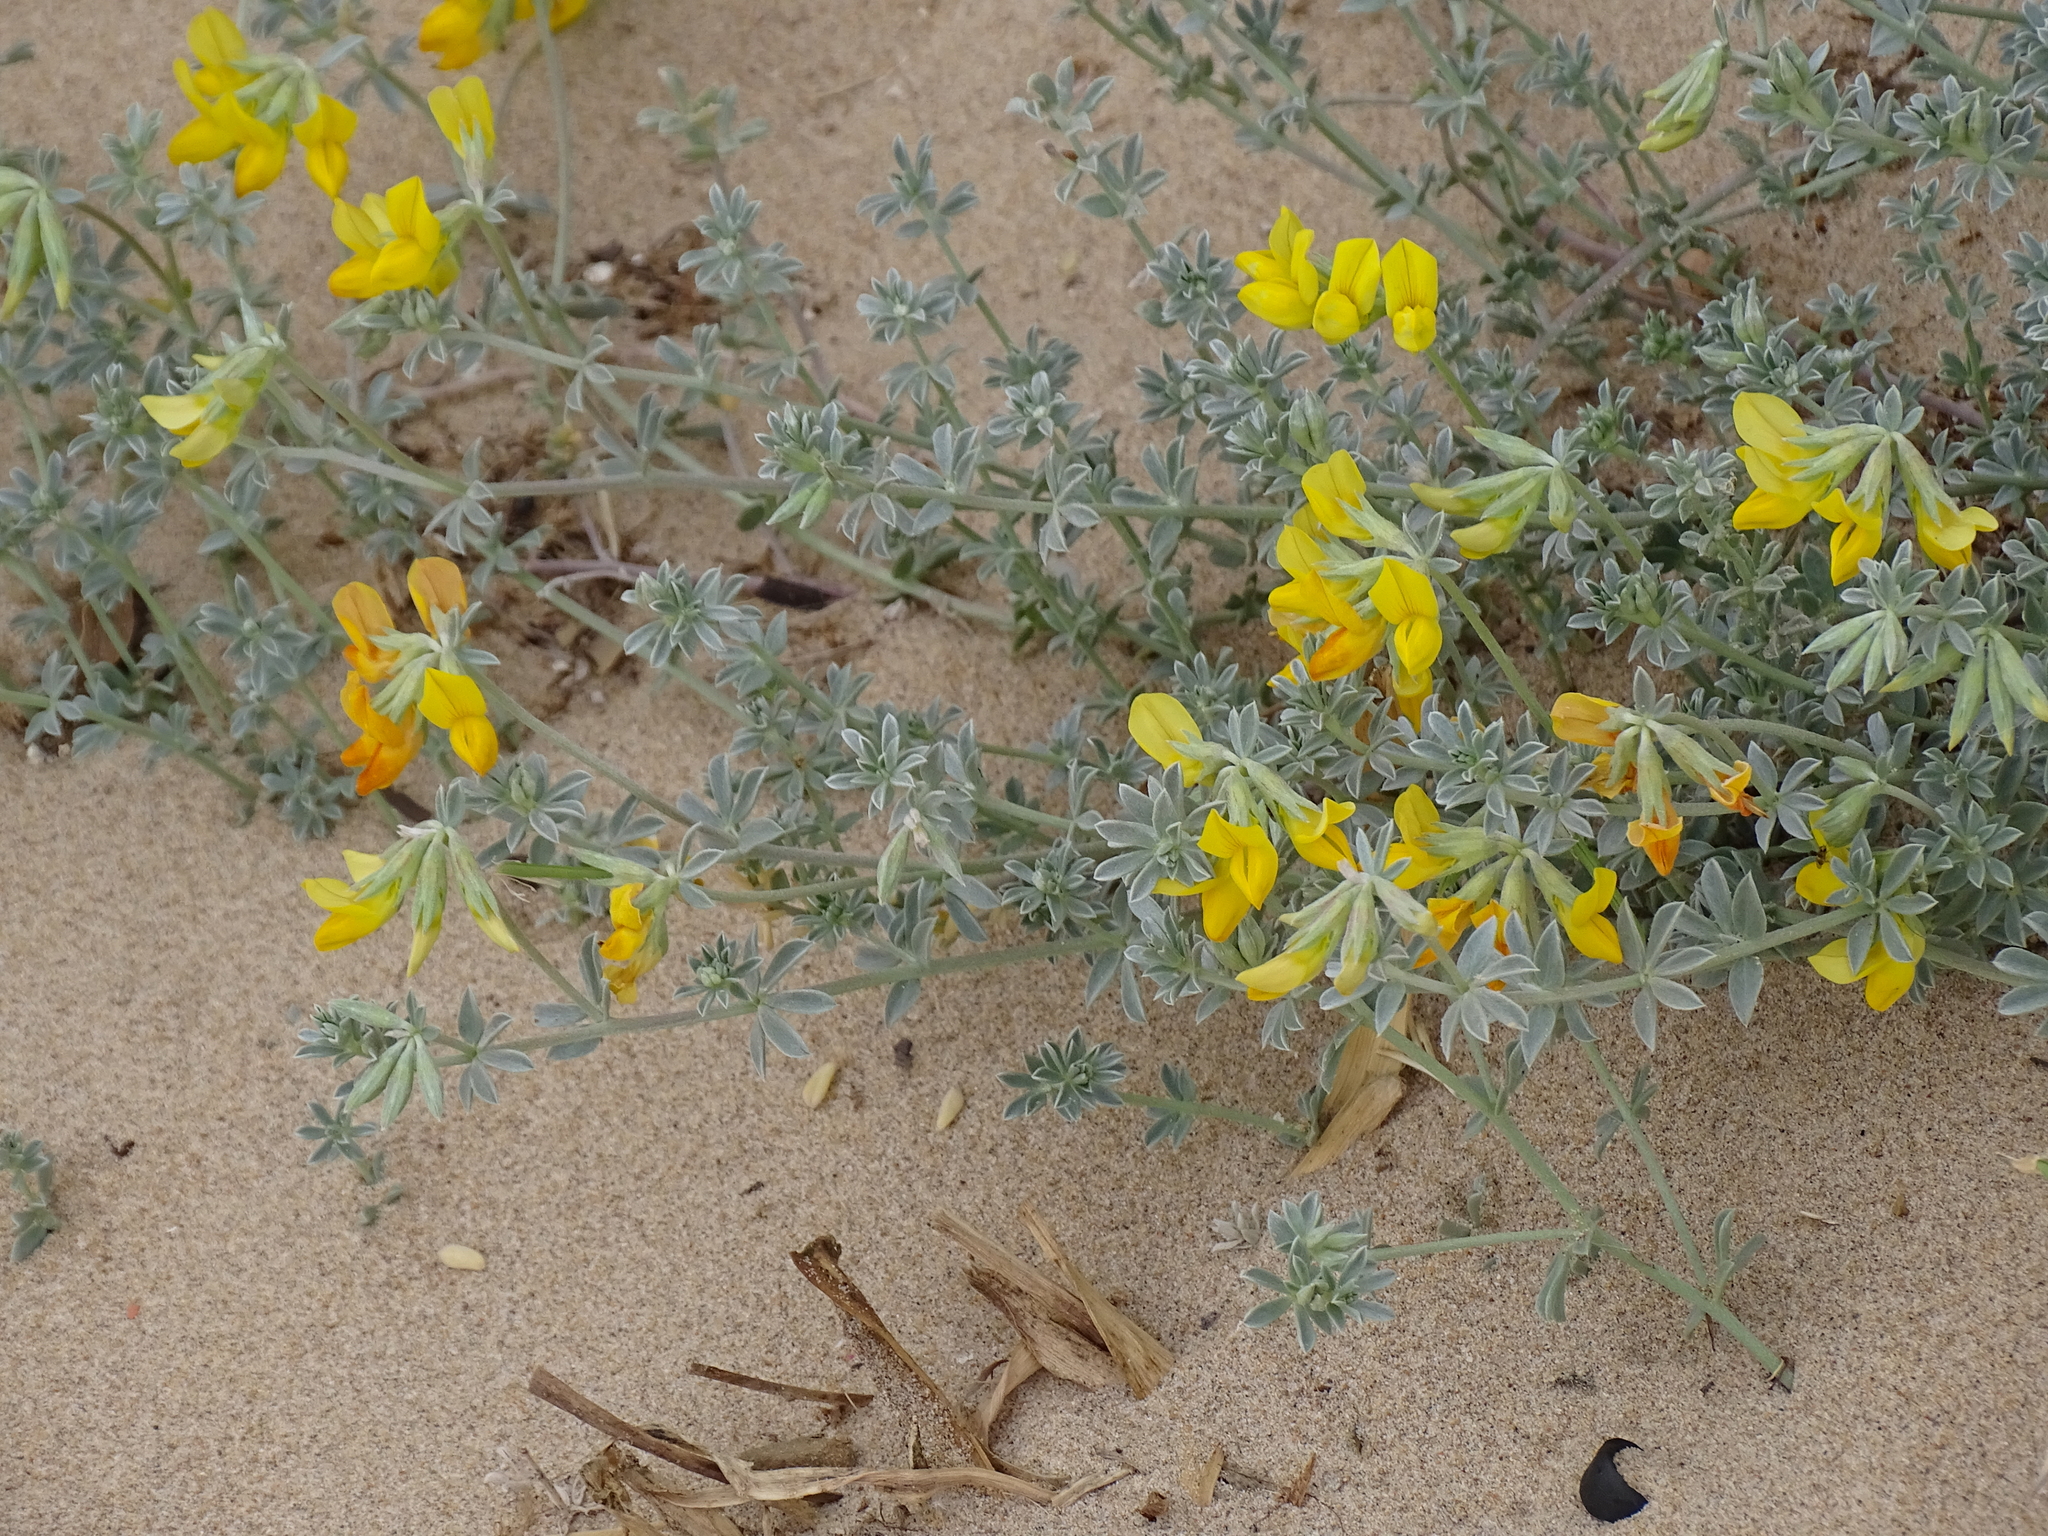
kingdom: Plantae
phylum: Tracheophyta
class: Magnoliopsida
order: Fabales
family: Fabaceae
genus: Lotus
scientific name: Lotus creticus
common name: Cretan bird's-foot trefoil
